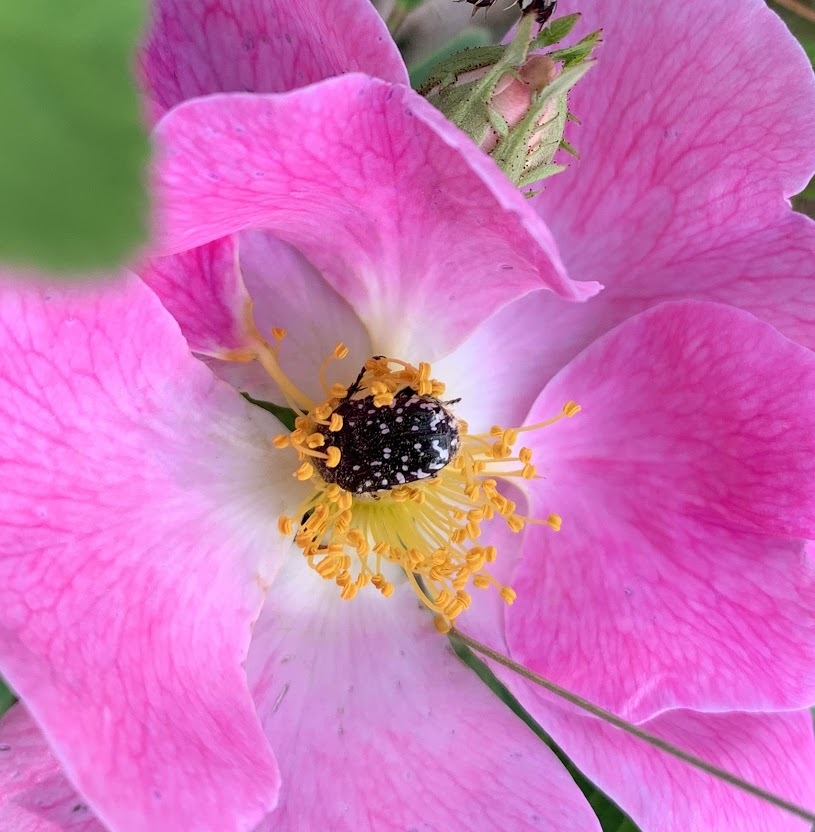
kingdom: Animalia
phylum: Arthropoda
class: Insecta
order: Coleoptera
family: Scarabaeidae
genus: Oxythyrea
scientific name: Oxythyrea funesta
